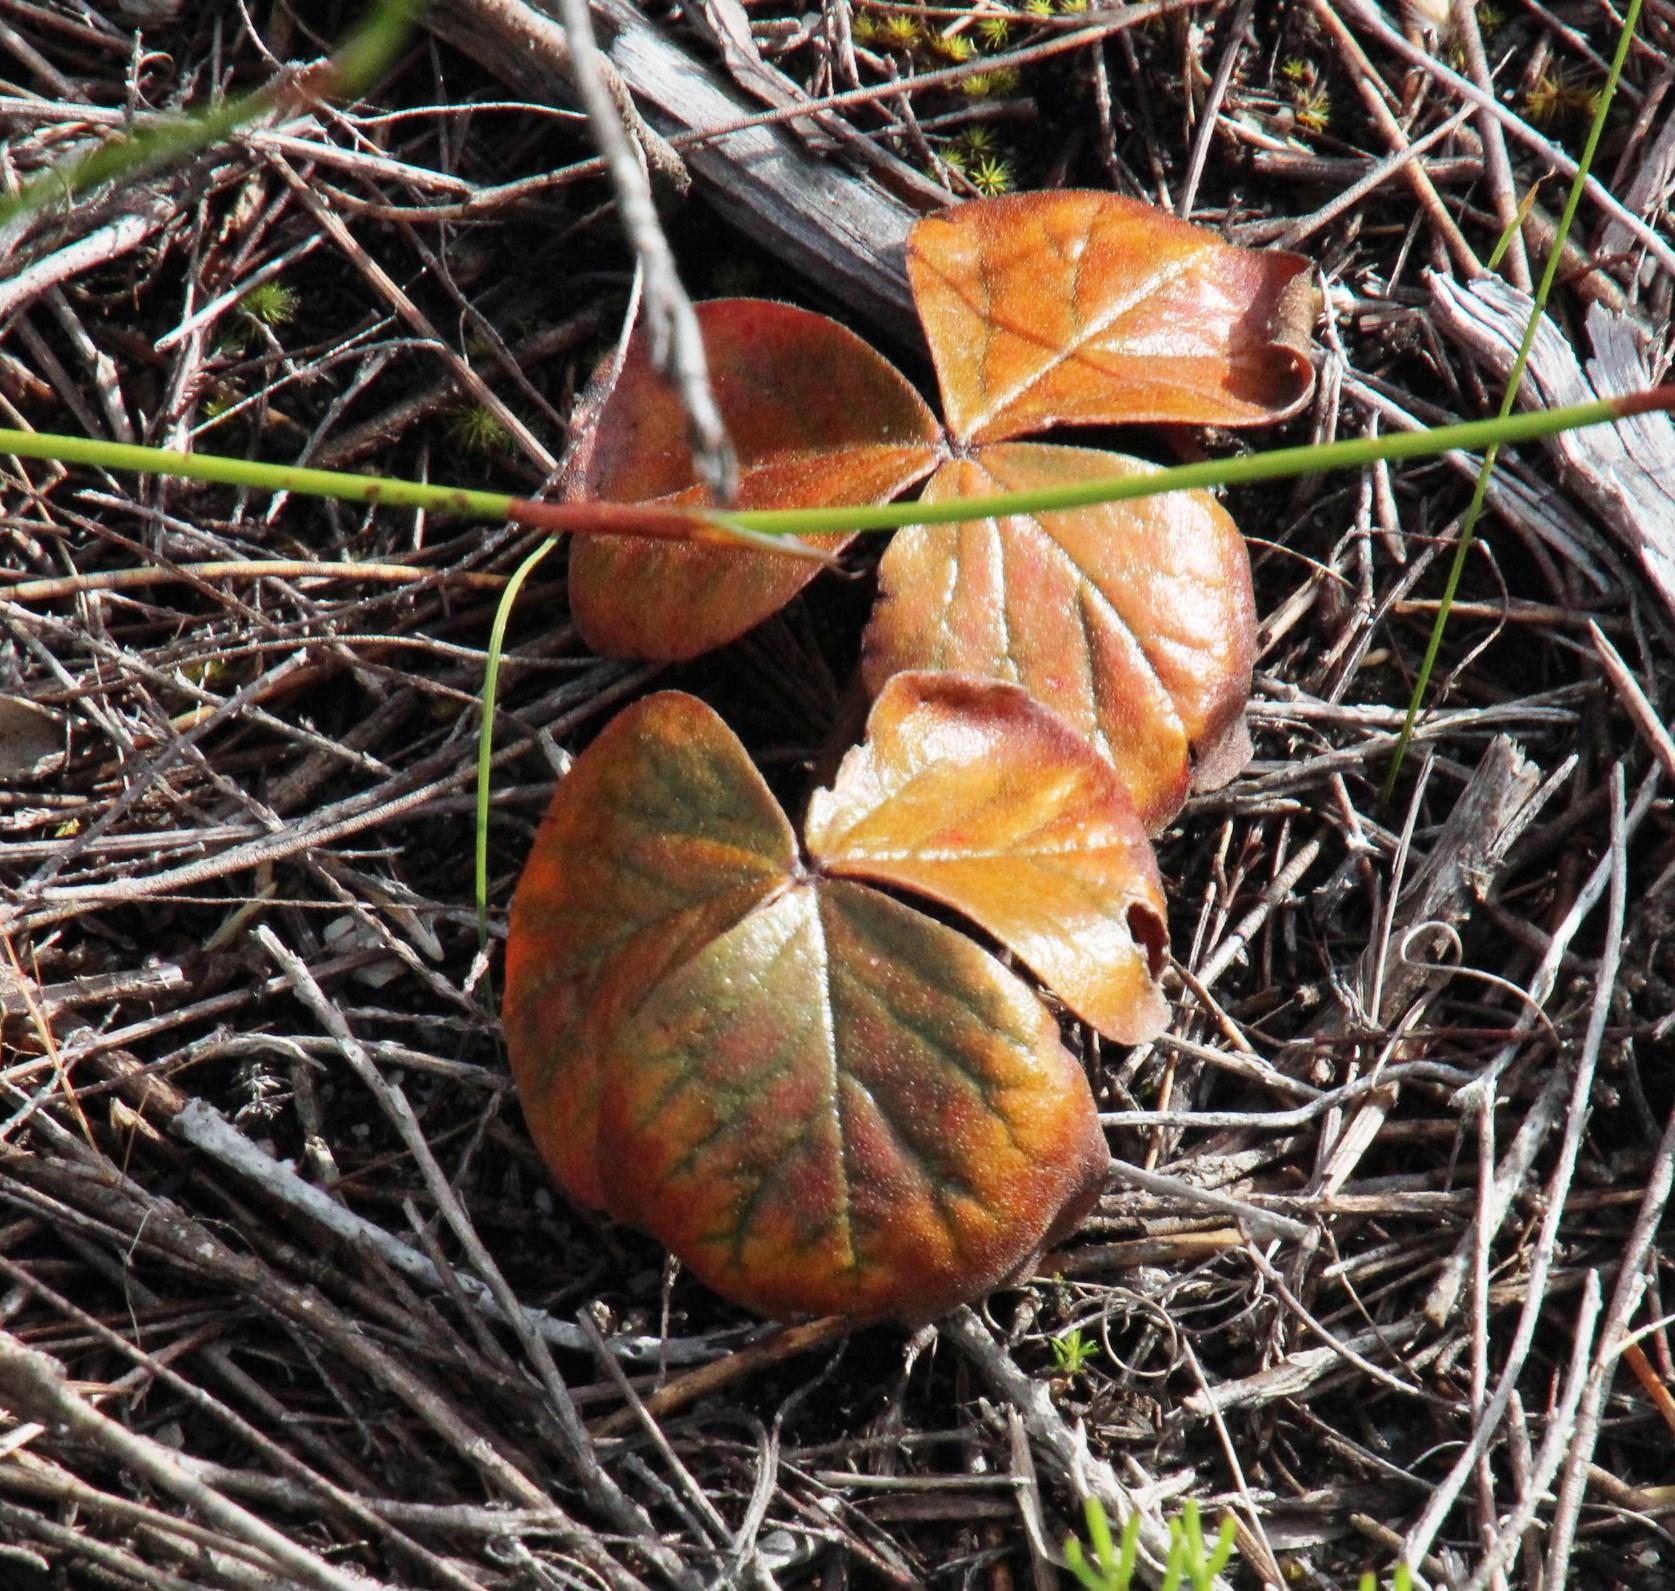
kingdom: Plantae
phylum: Tracheophyta
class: Magnoliopsida
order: Oxalidales
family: Oxalidaceae
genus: Oxalis
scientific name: Oxalis truncatula
